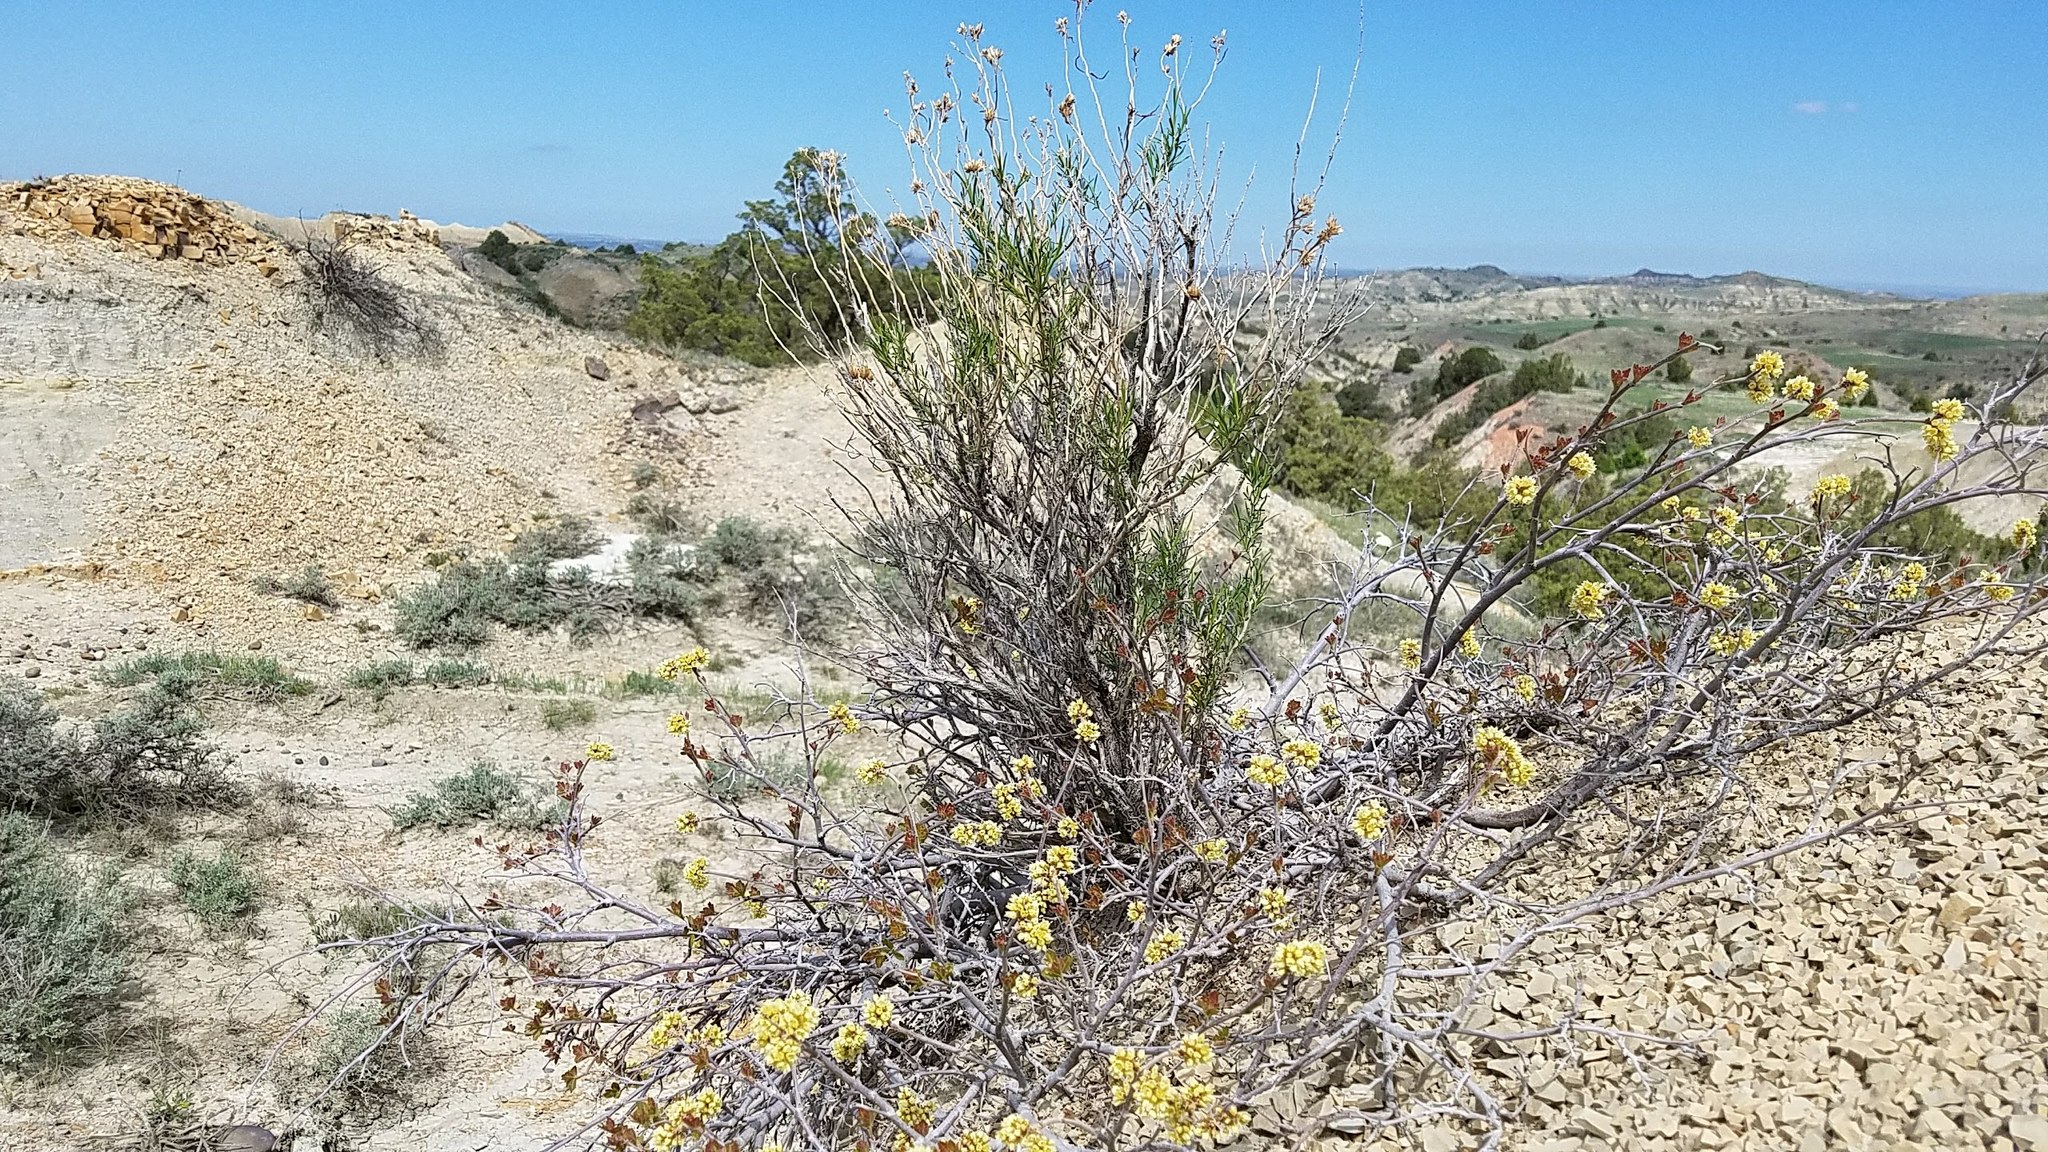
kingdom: Plantae
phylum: Tracheophyta
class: Magnoliopsida
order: Sapindales
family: Anacardiaceae
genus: Rhus
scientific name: Rhus aromatica
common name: Aromatic sumac
